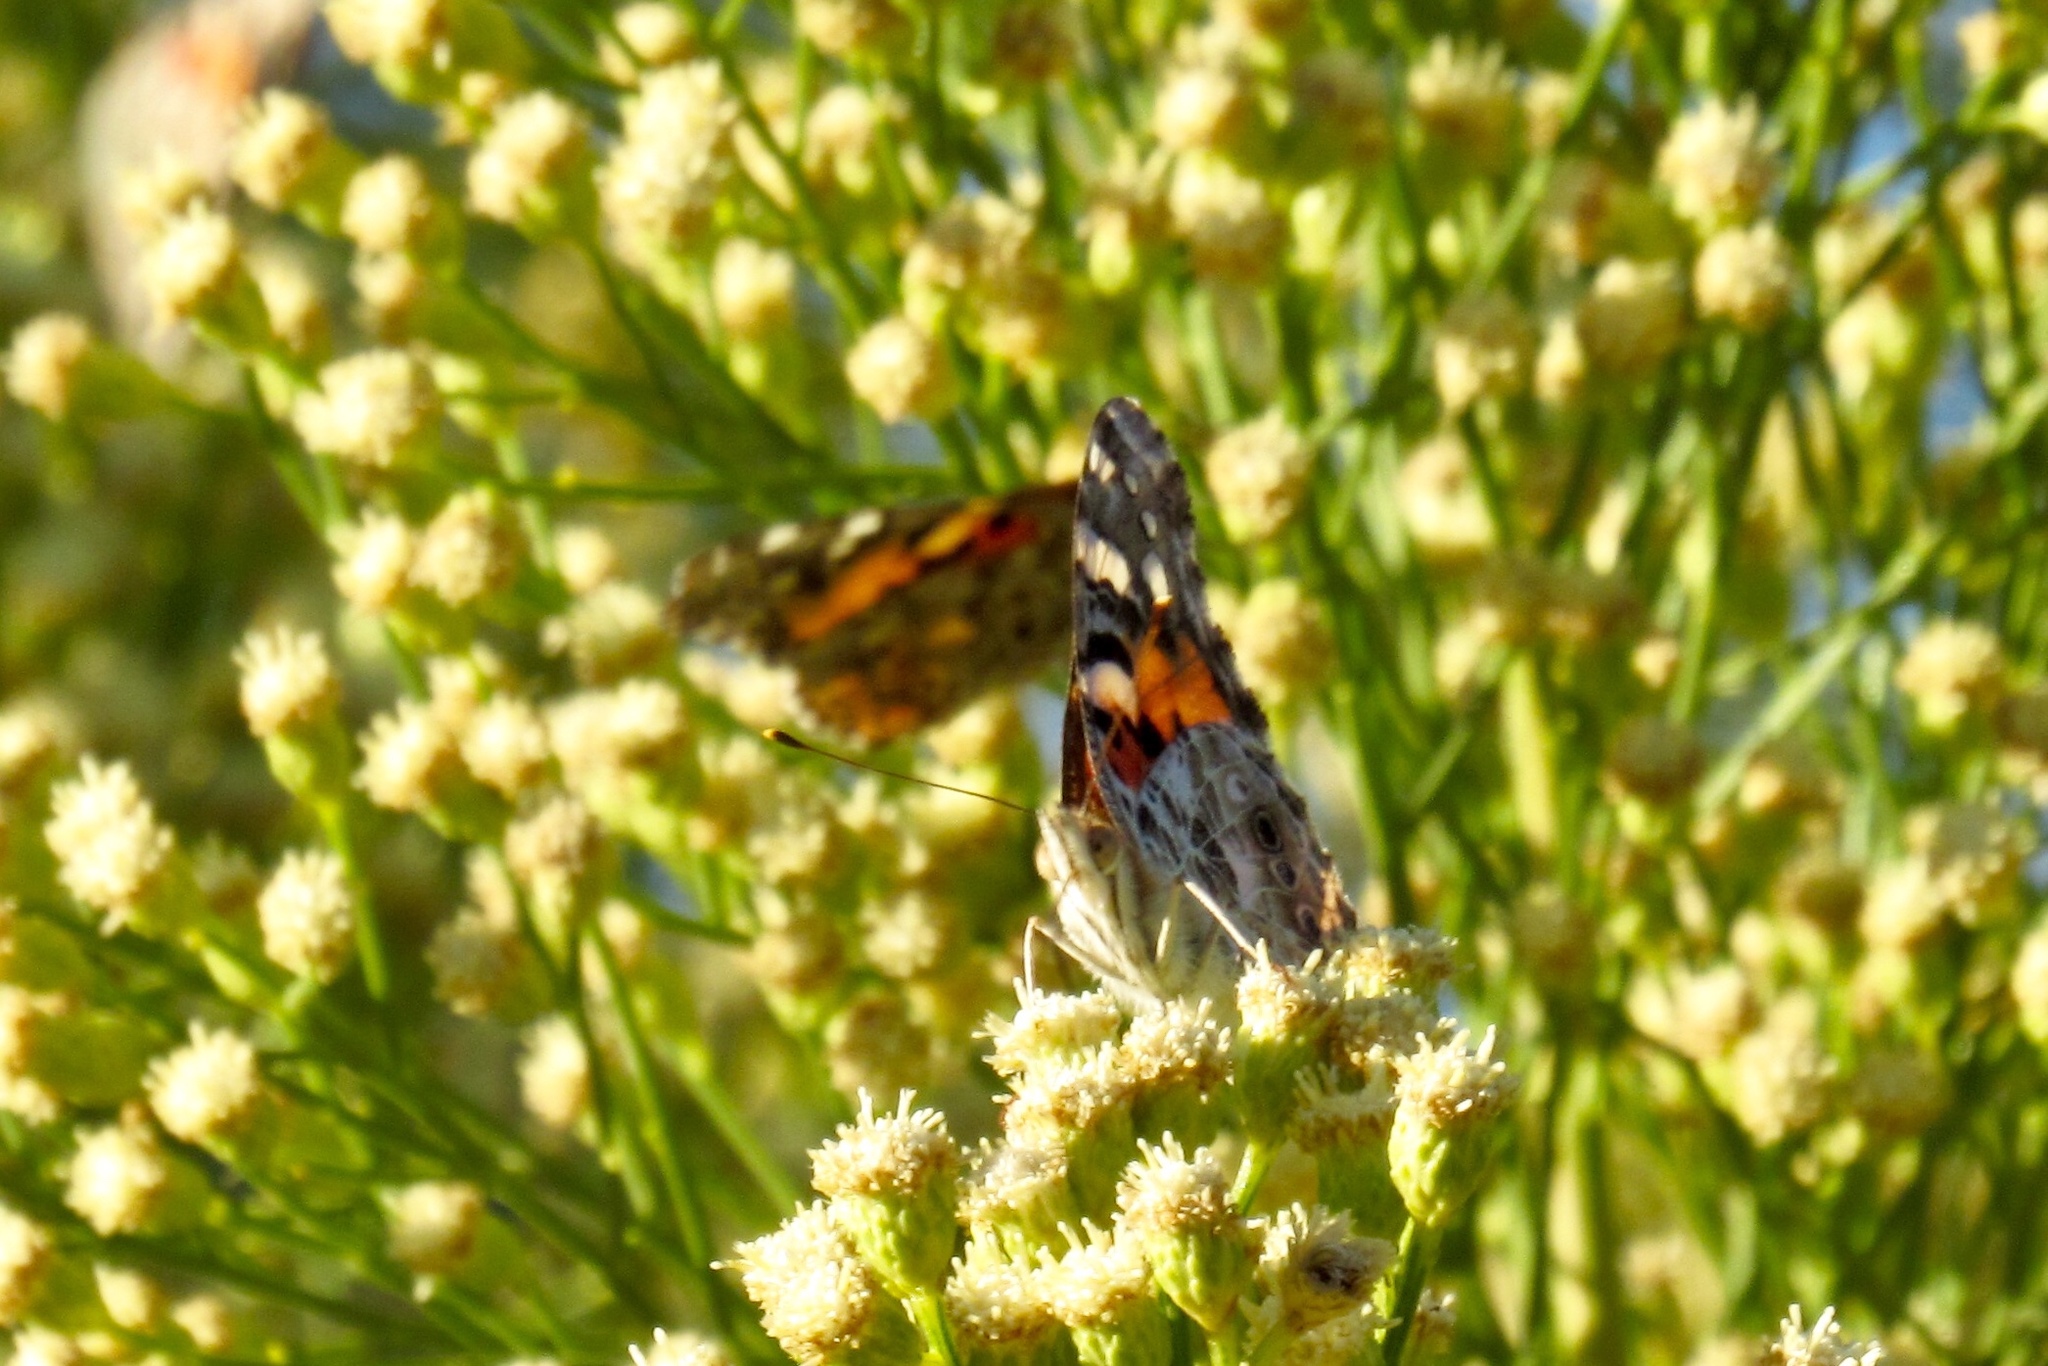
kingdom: Animalia
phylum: Arthropoda
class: Insecta
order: Lepidoptera
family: Nymphalidae
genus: Vanessa
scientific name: Vanessa cardui
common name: Painted lady
